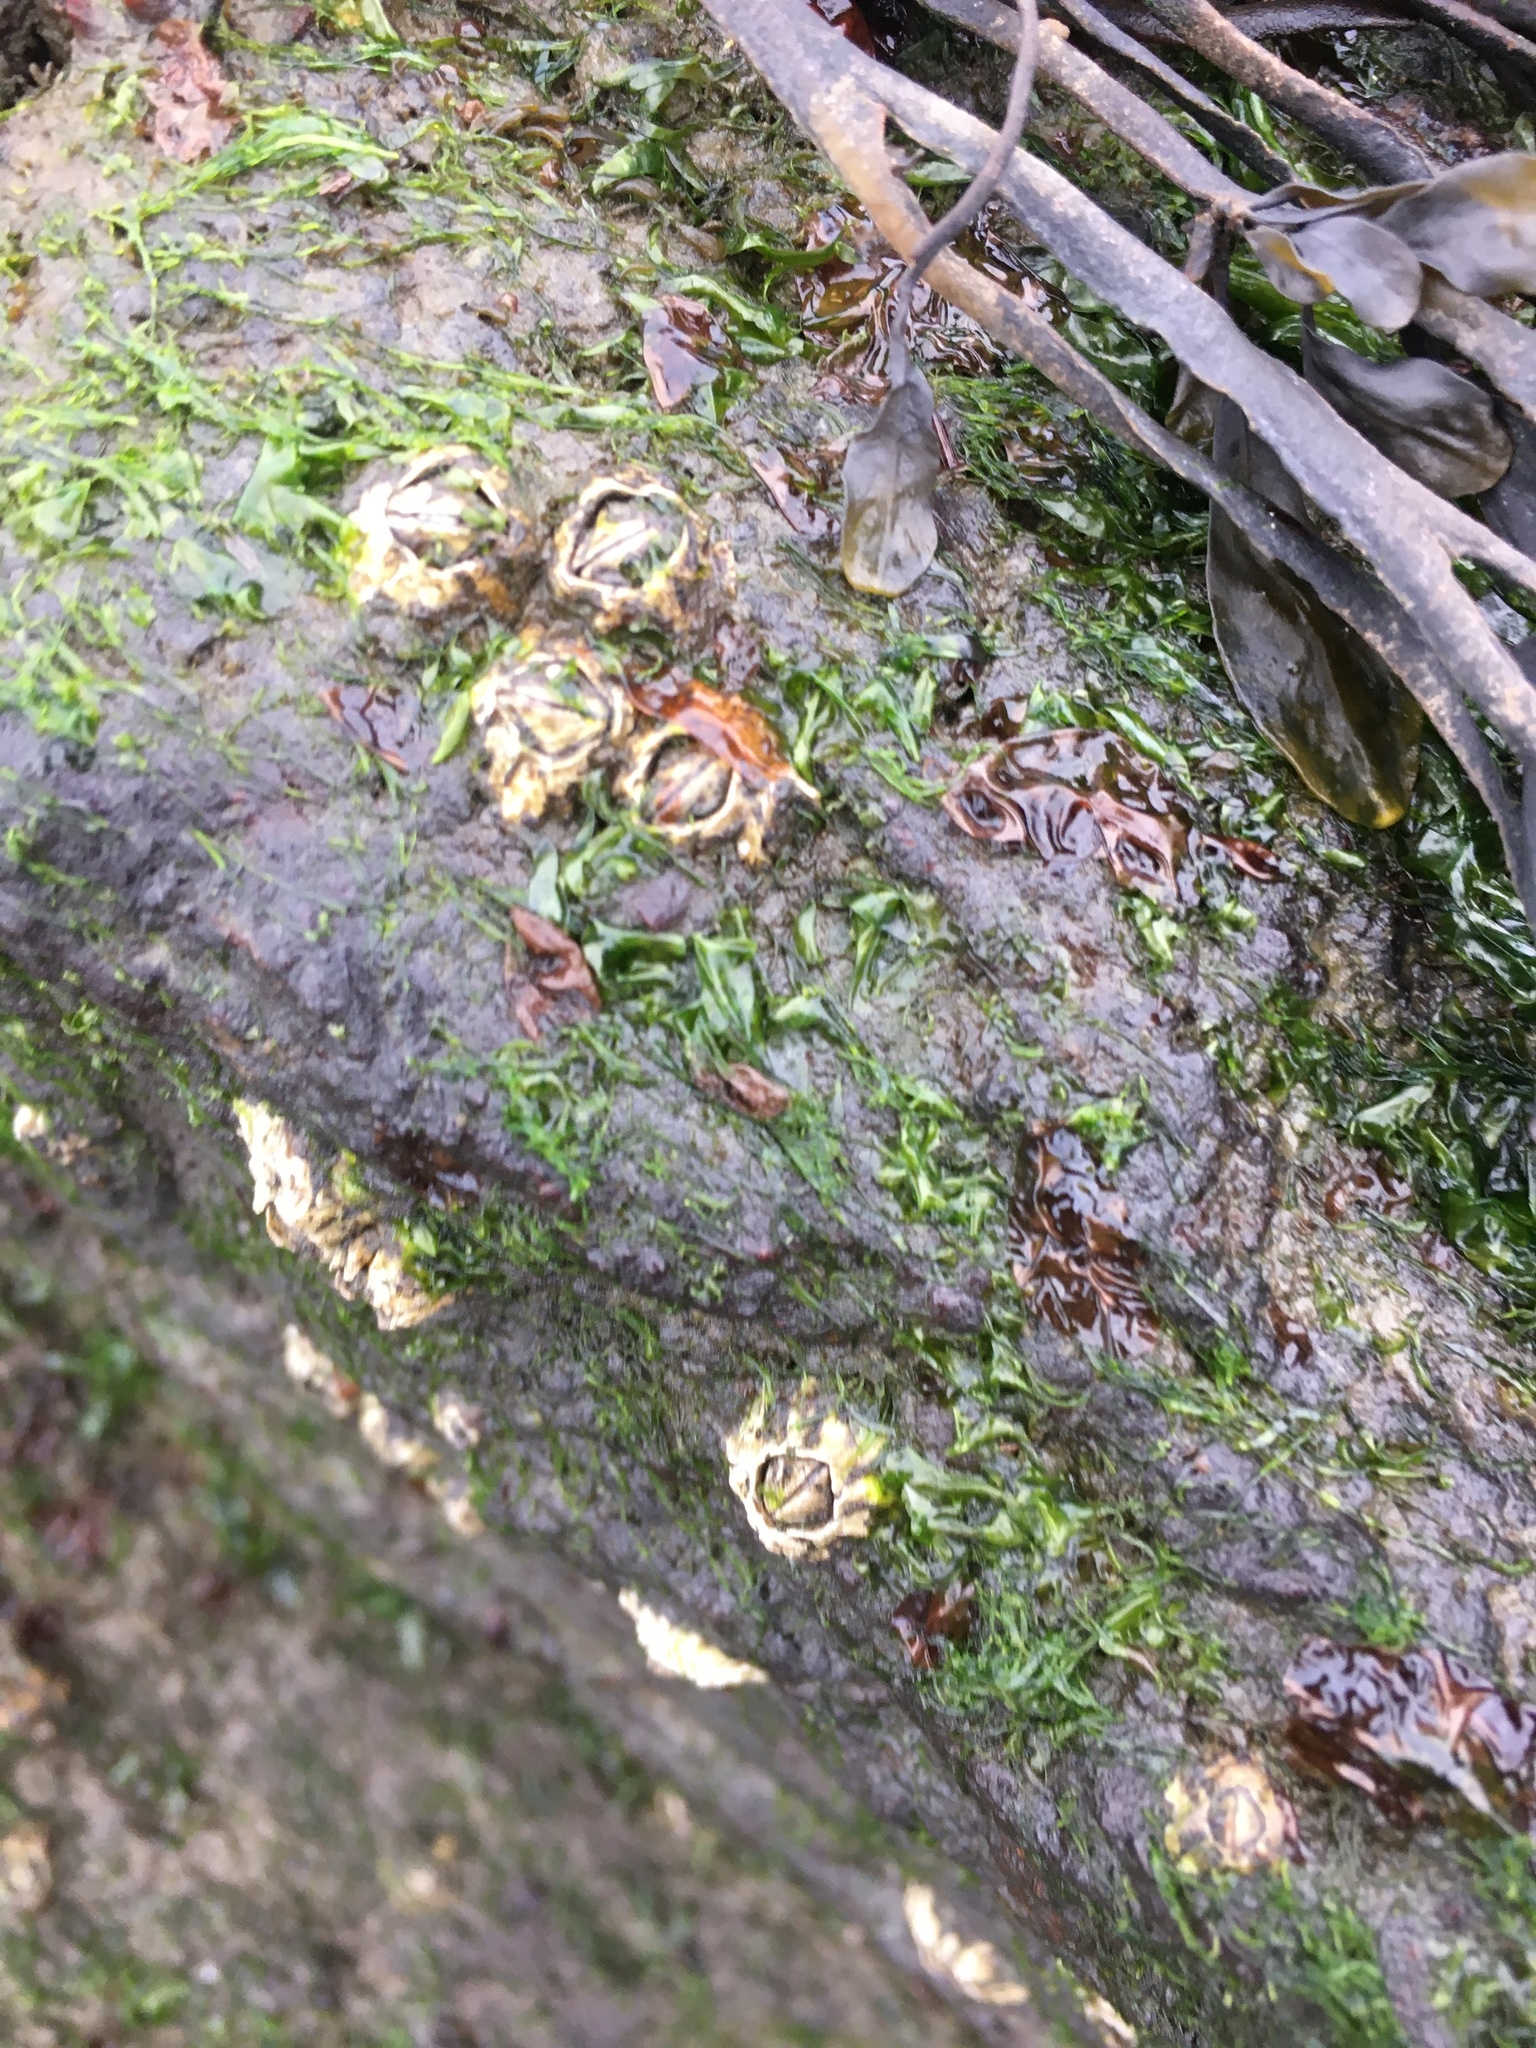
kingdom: Animalia
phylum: Arthropoda
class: Maxillopoda
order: Sessilia
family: Archaeobalanidae
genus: Semibalanus
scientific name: Semibalanus balanoides
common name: Acorn barnacle
